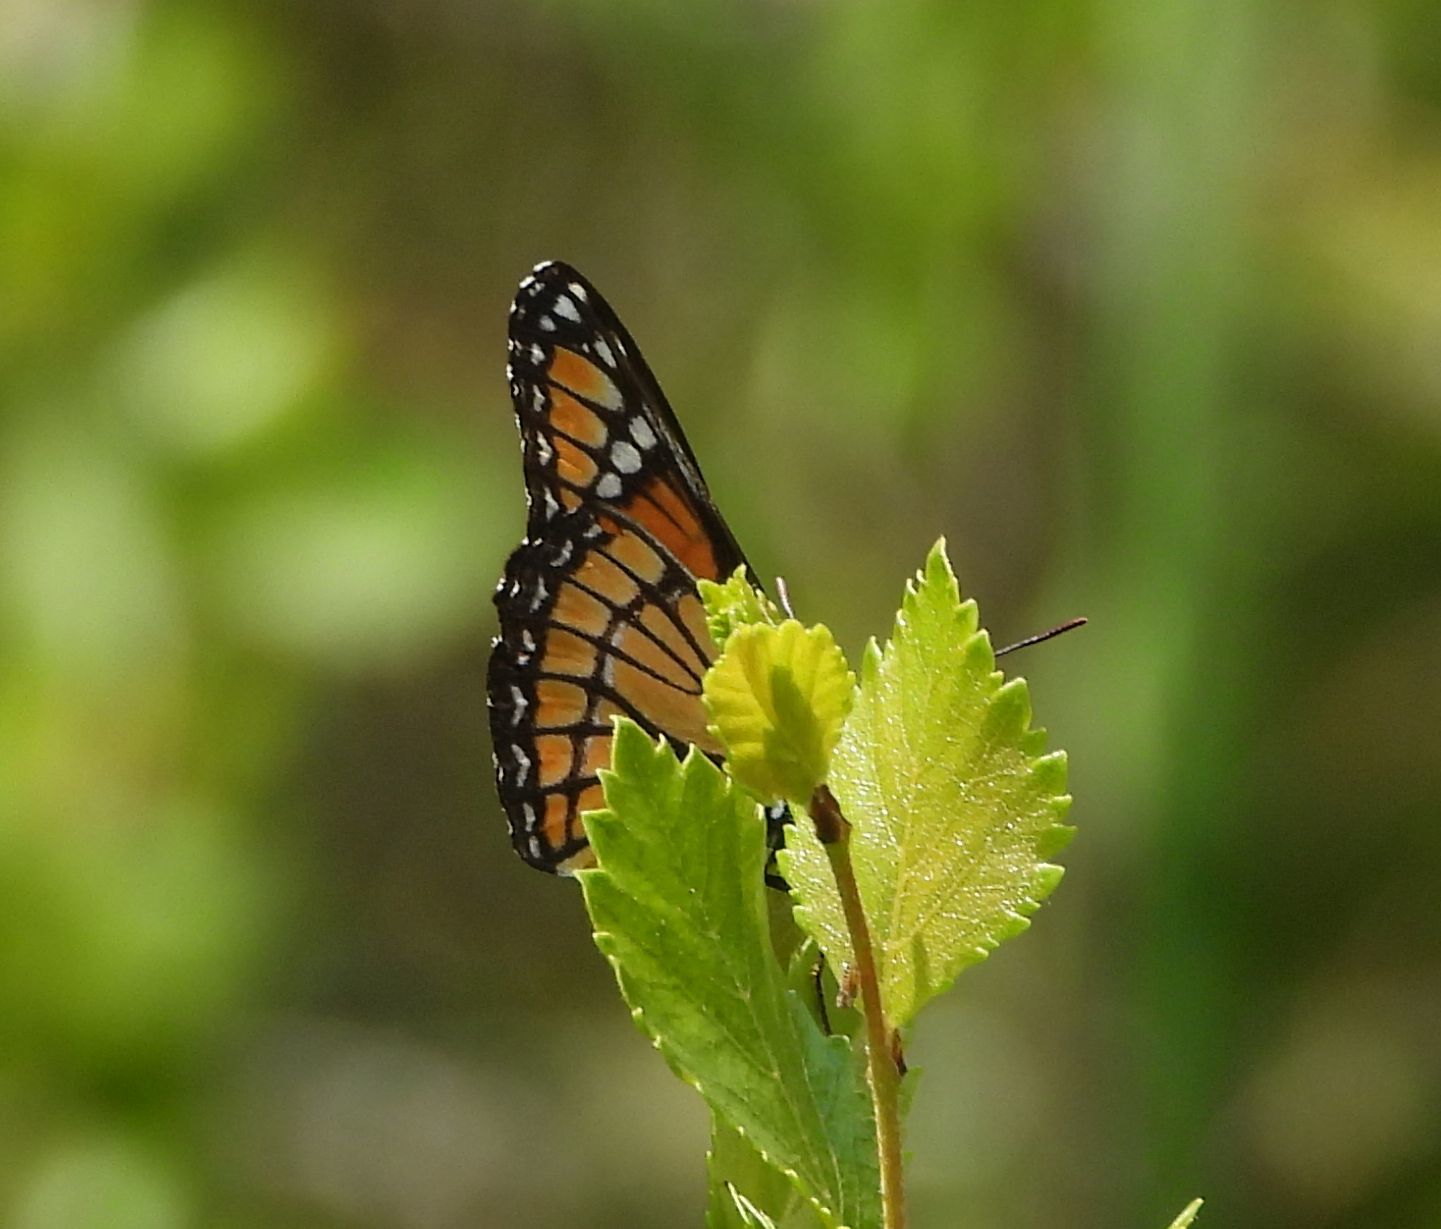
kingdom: Animalia
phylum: Arthropoda
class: Insecta
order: Lepidoptera
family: Nymphalidae
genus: Limenitis
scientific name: Limenitis archippus
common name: Viceroy
